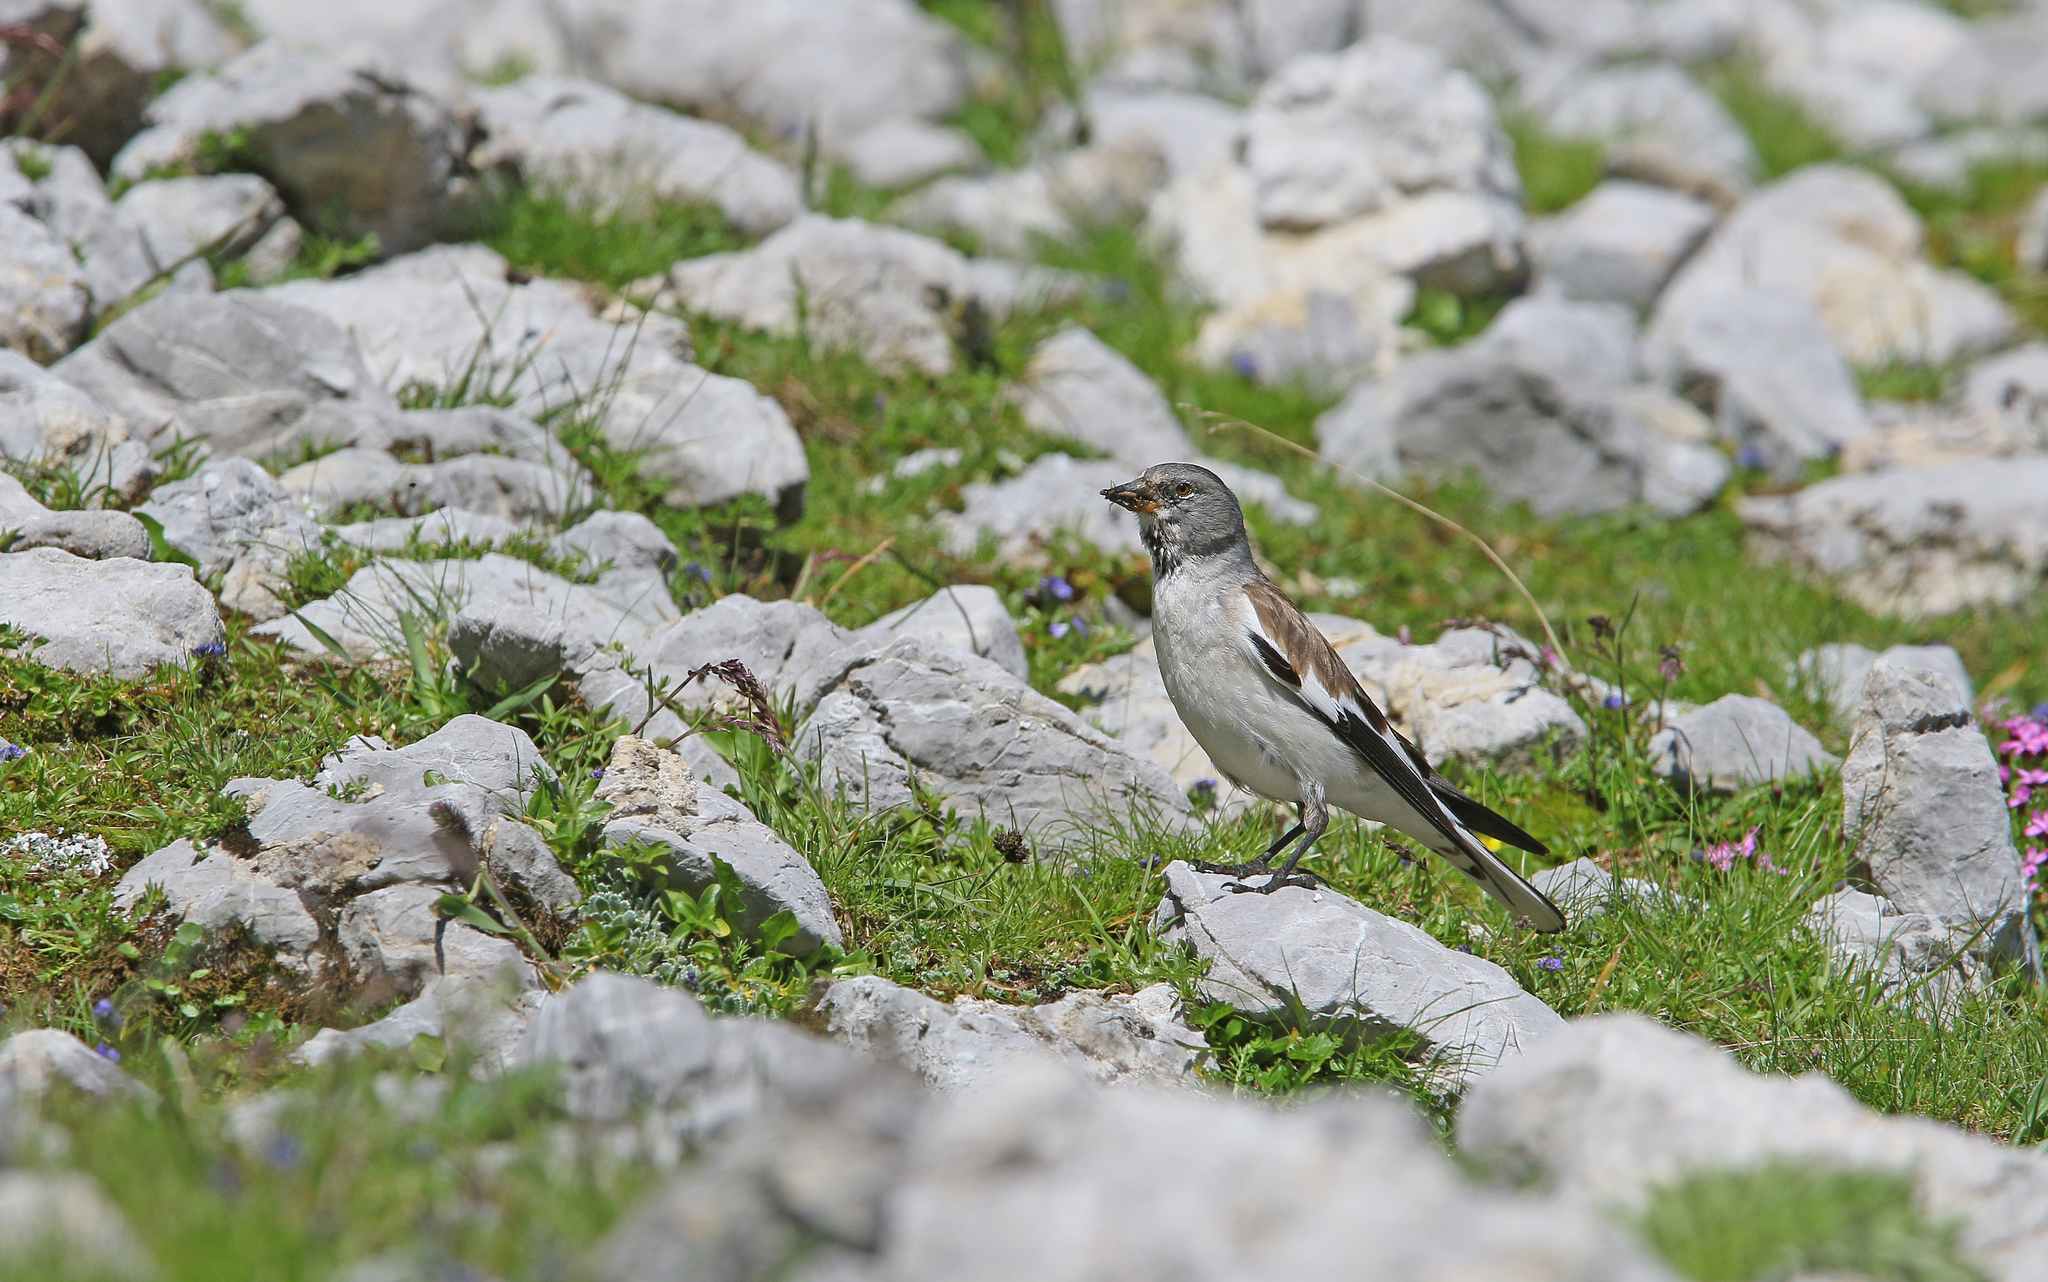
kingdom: Animalia
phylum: Chordata
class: Aves
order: Passeriformes
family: Passeridae
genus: Montifringilla
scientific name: Montifringilla nivalis
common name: White-winged snowfinch
